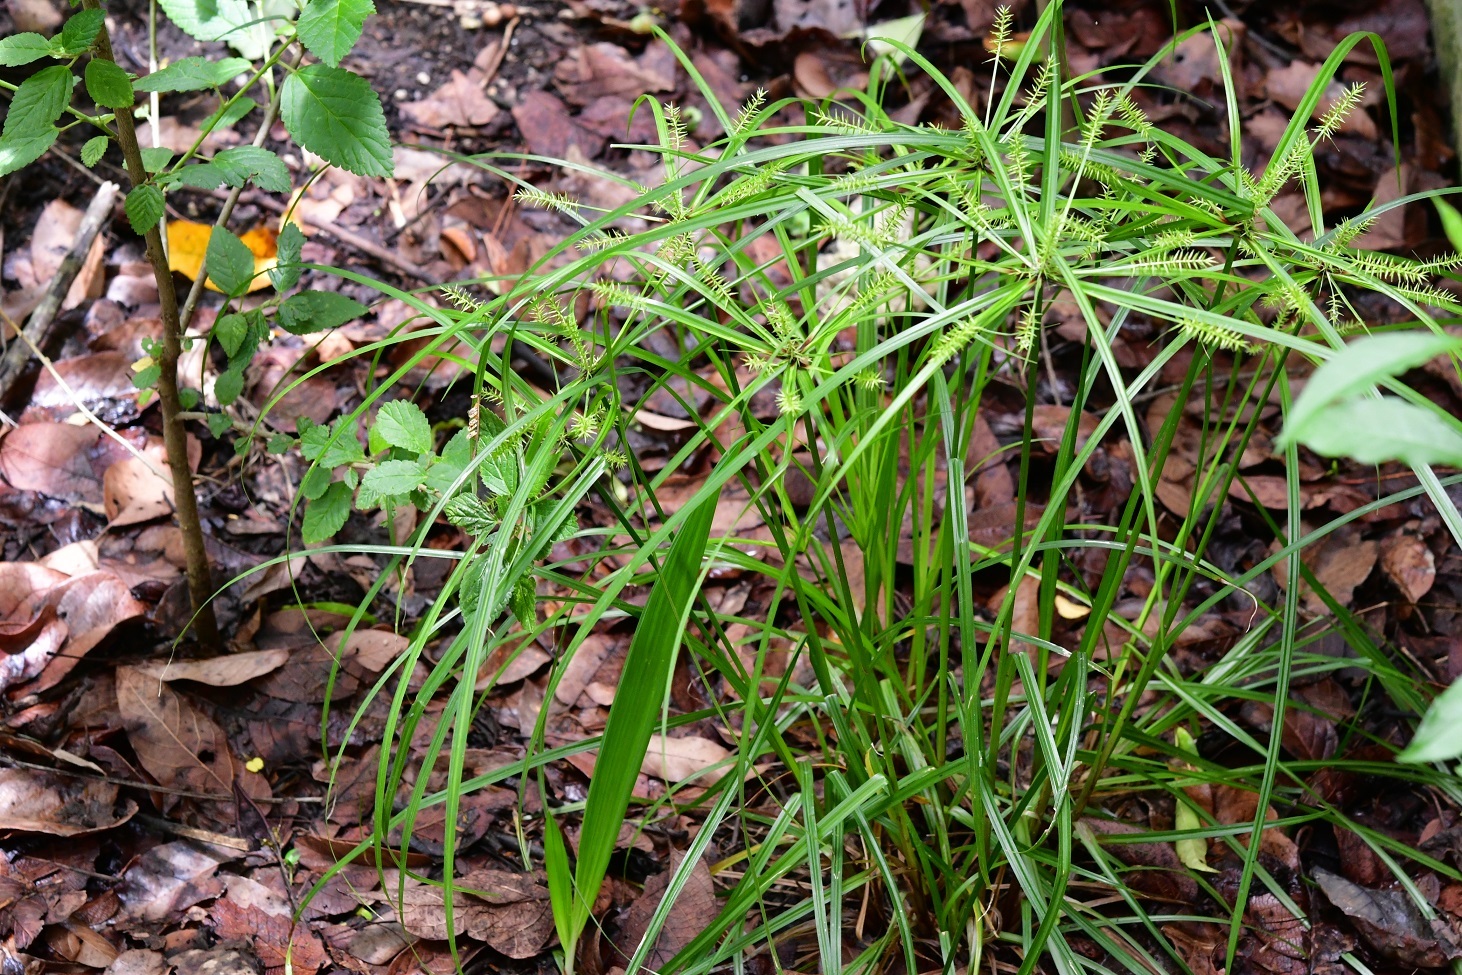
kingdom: Plantae
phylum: Tracheophyta
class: Liliopsida
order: Poales
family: Cyperaceae
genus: Cyperus
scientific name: Cyperus hermaphroditus
